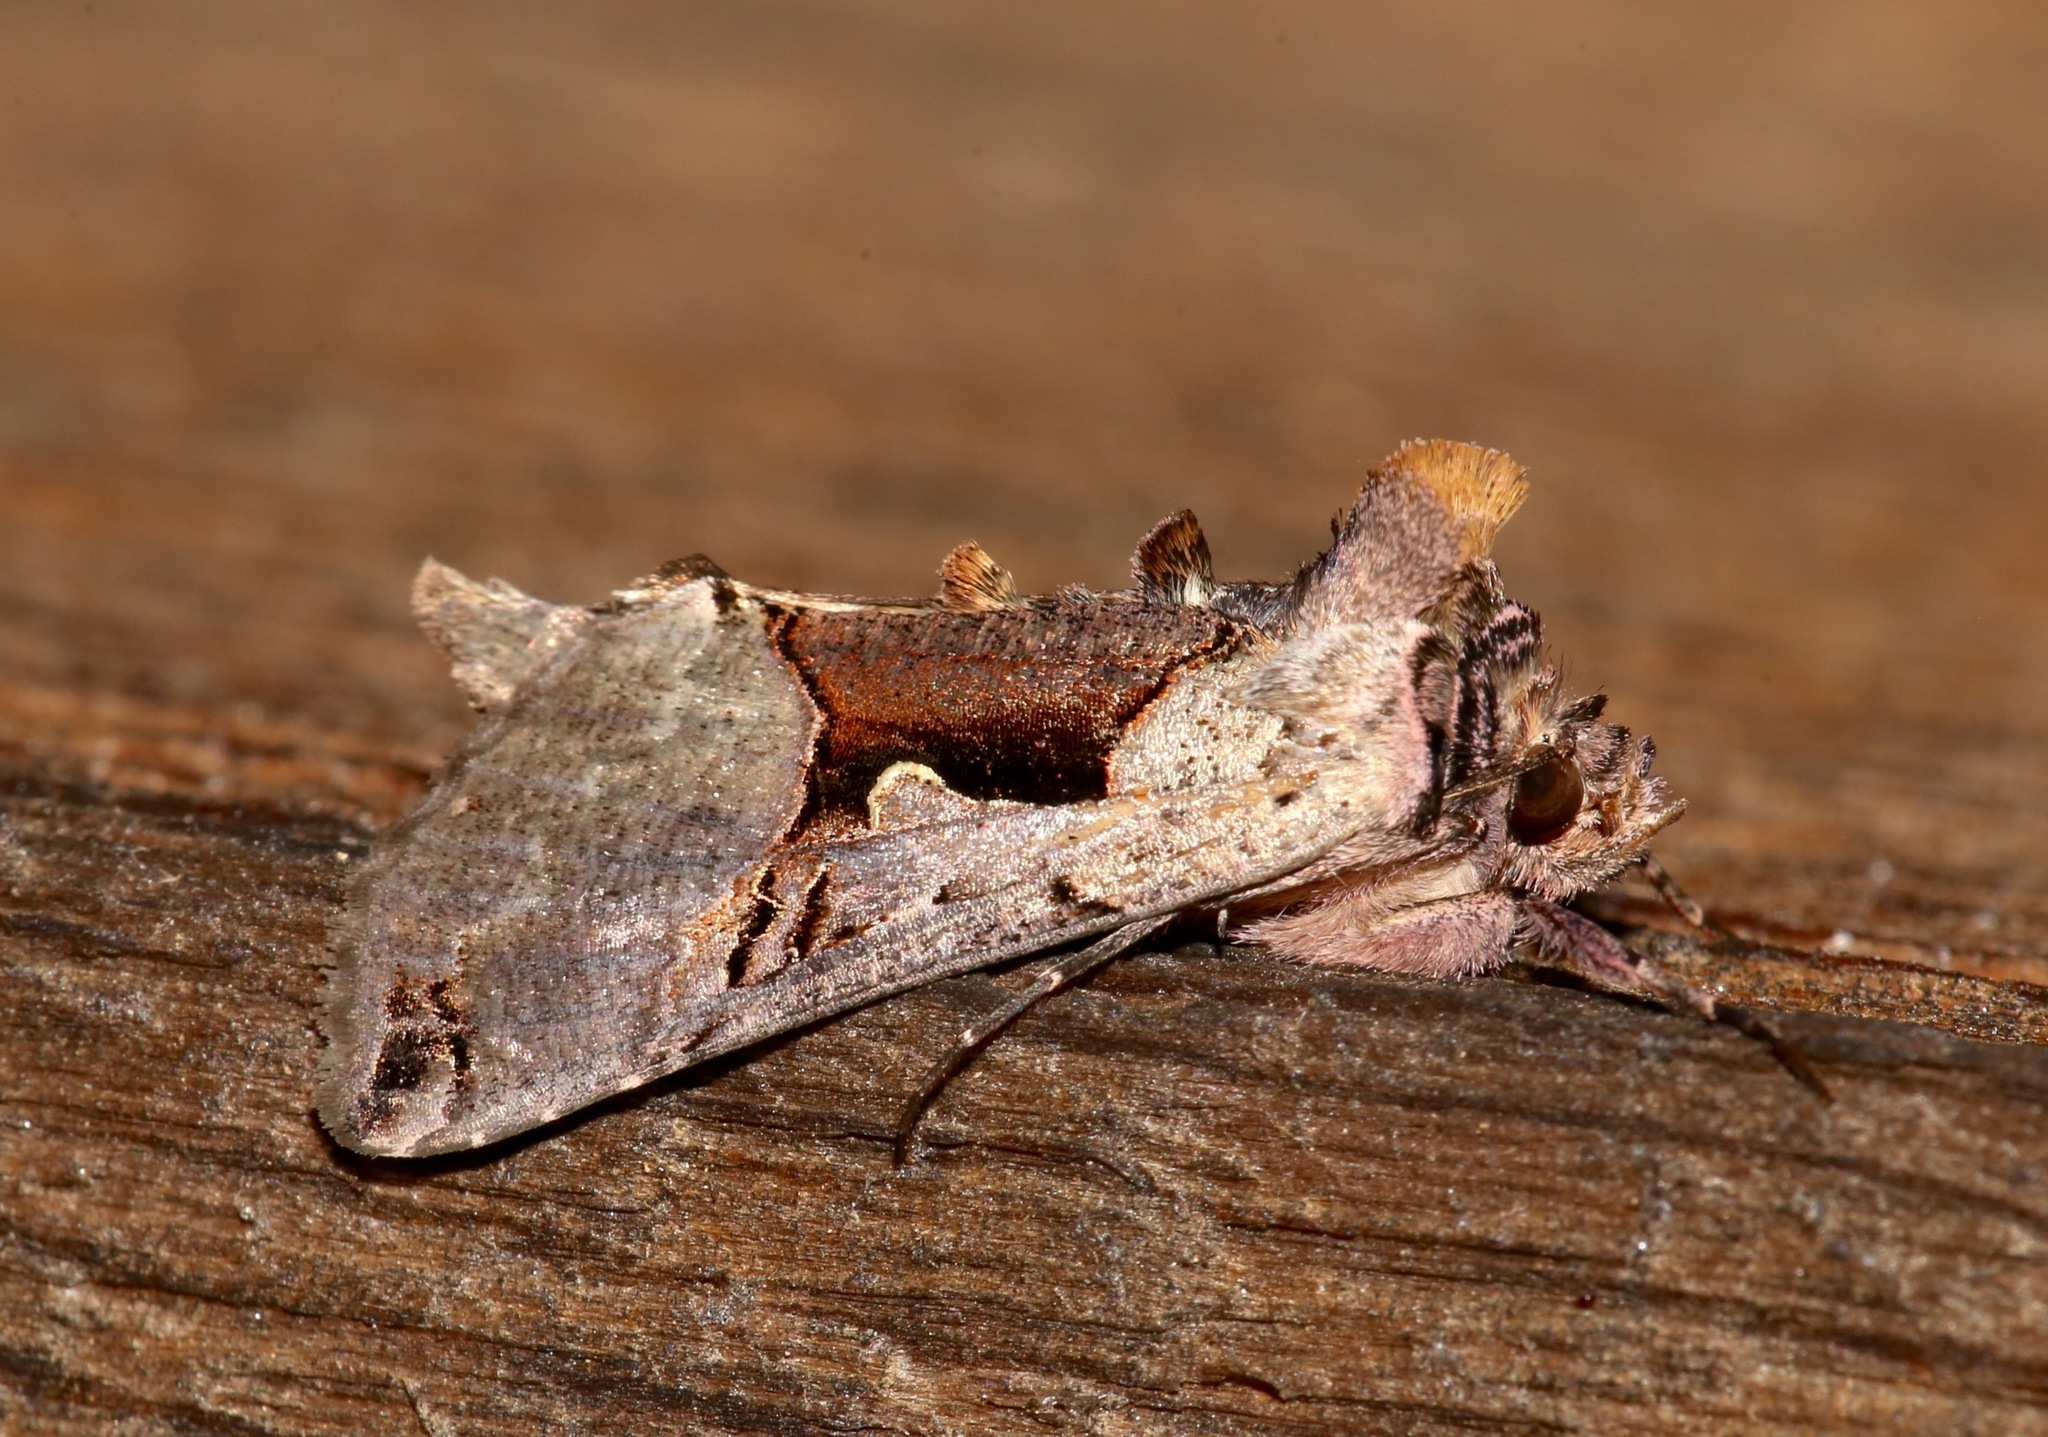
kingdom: Animalia
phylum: Arthropoda
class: Insecta
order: Lepidoptera
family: Noctuidae
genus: Autographa
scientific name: Autographa ampla
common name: Large looper moth
